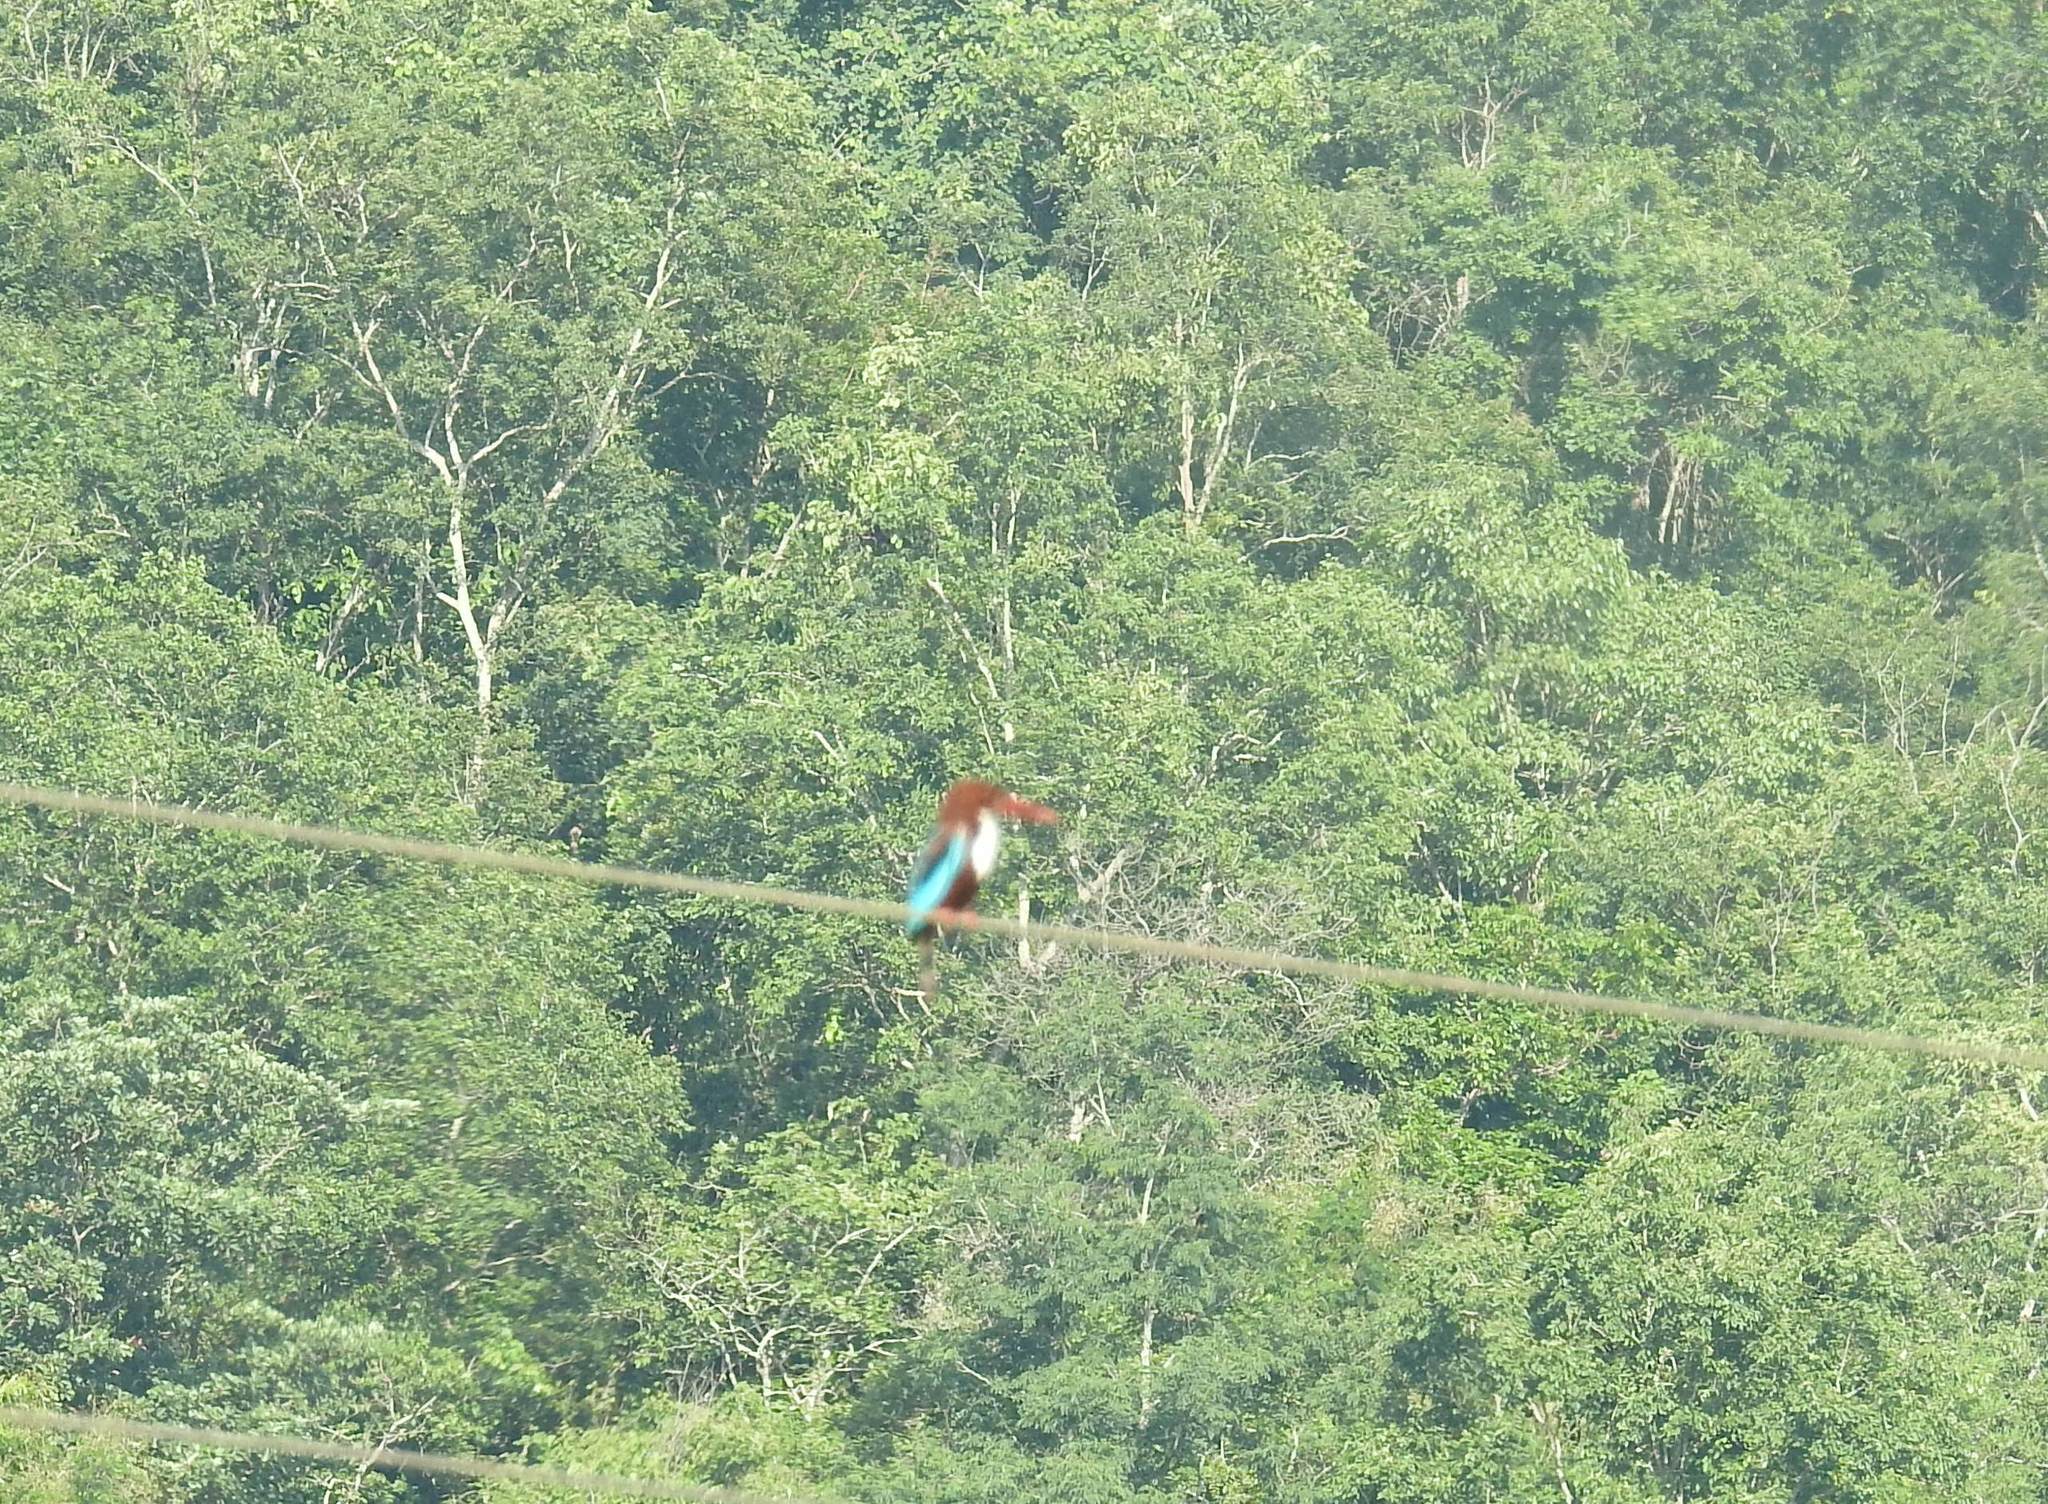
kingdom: Animalia
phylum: Chordata
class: Aves
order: Coraciiformes
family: Alcedinidae
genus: Halcyon
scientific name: Halcyon smyrnensis
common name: White-throated kingfisher
